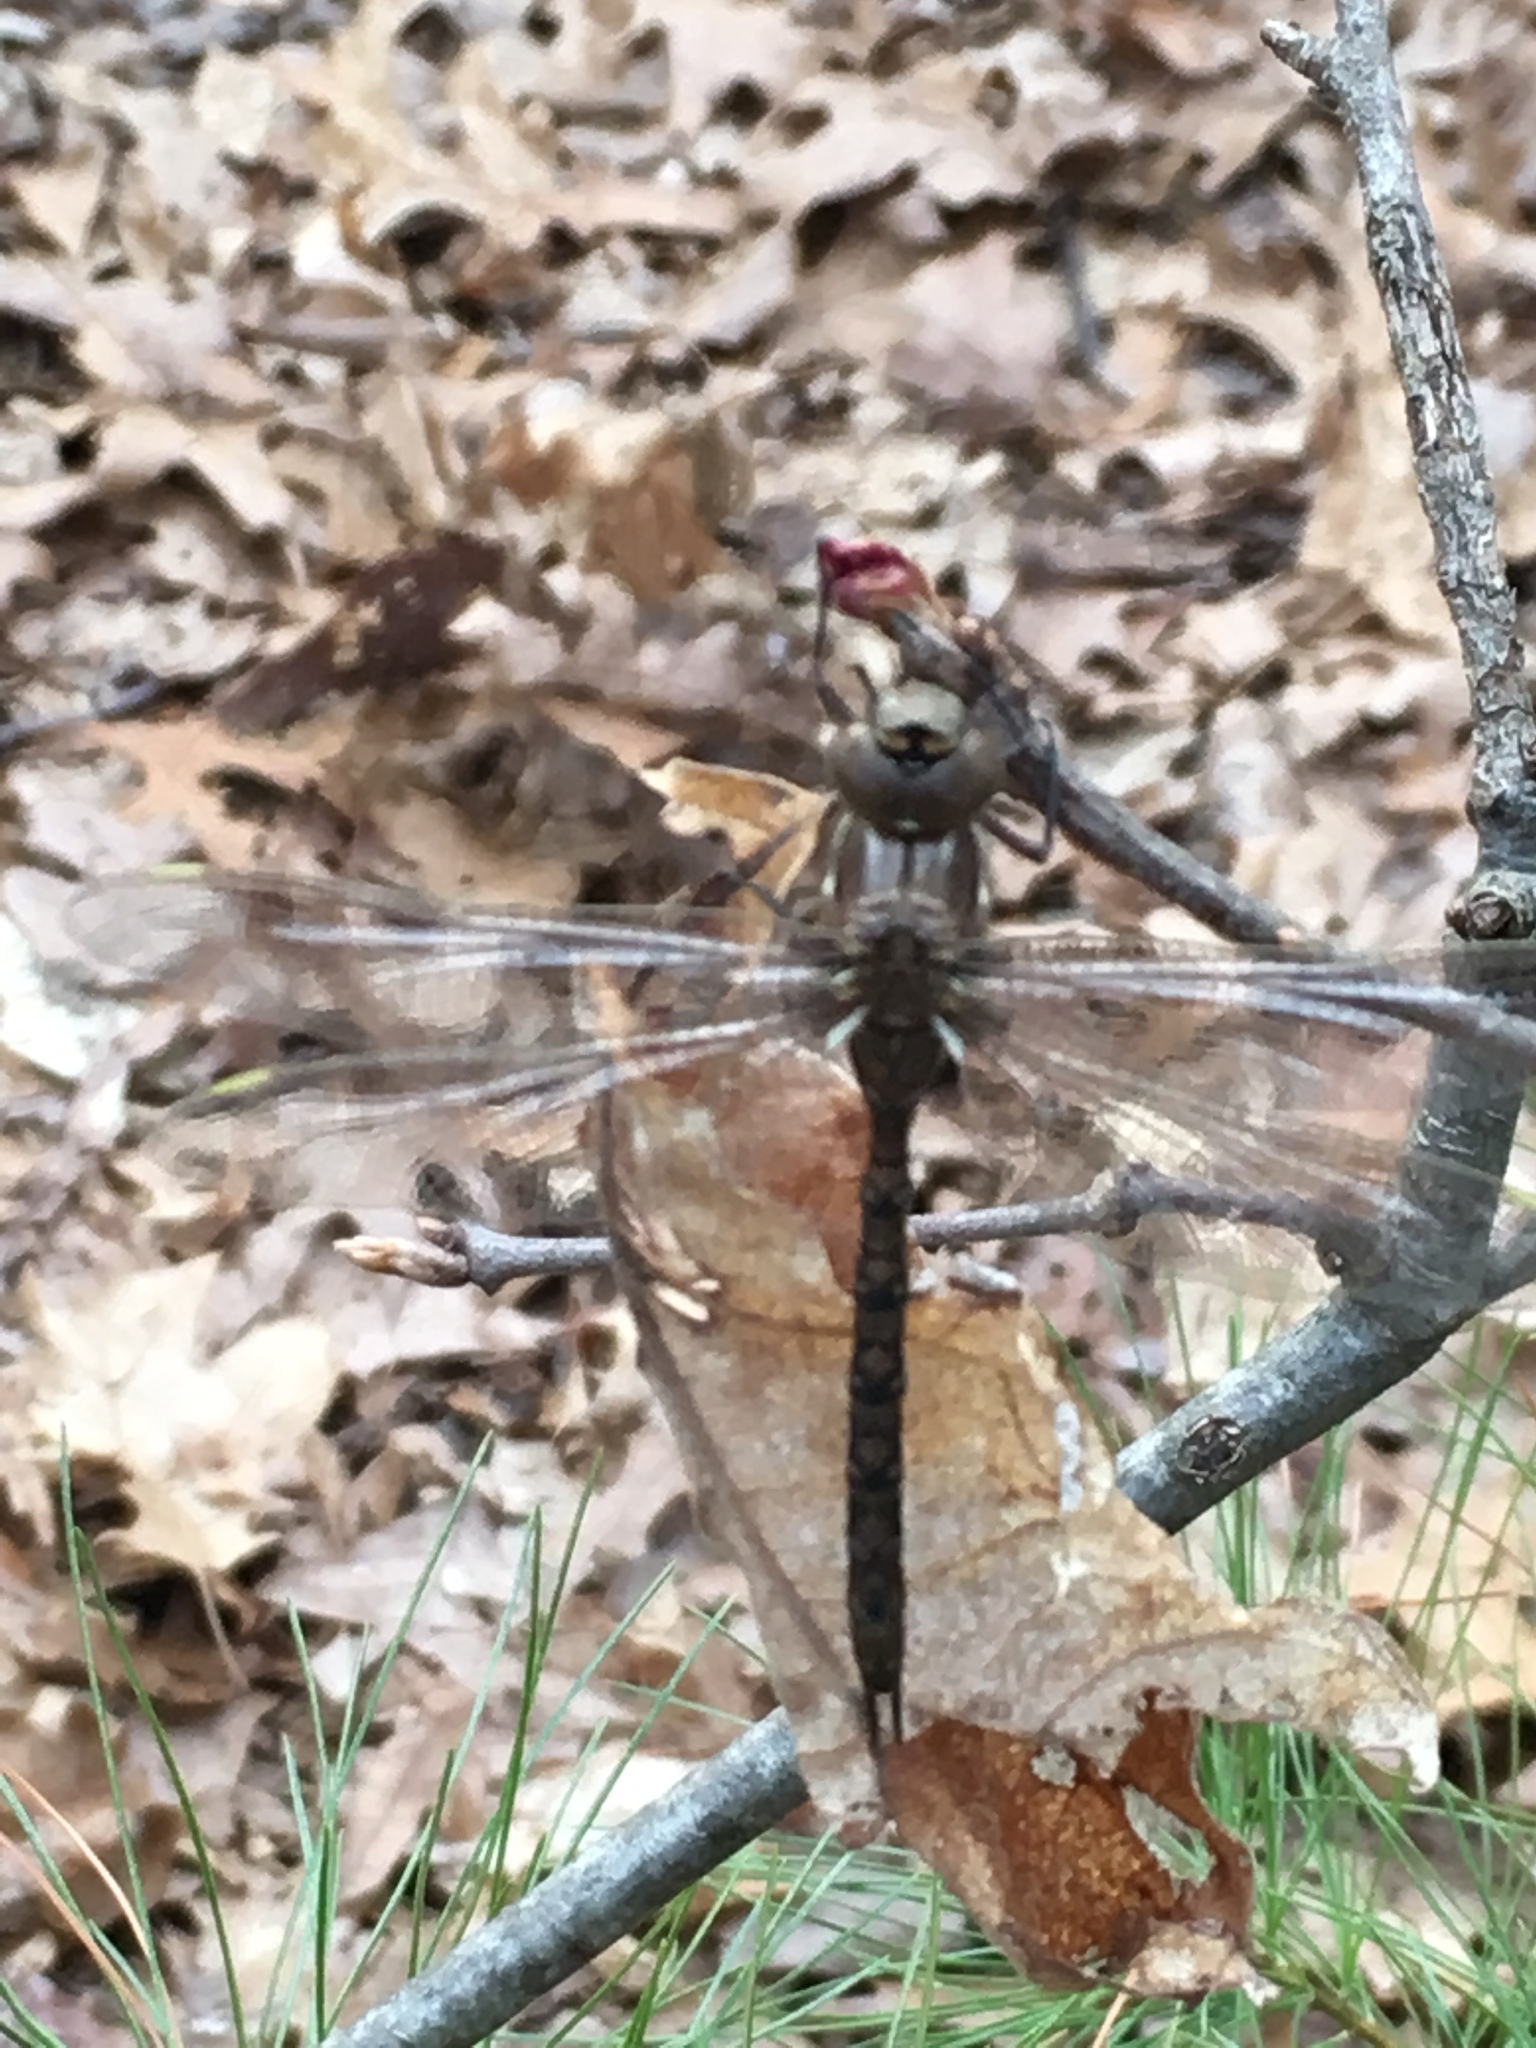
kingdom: Animalia
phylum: Arthropoda
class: Insecta
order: Odonata
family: Aeshnidae
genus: Basiaeschna
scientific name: Basiaeschna janata
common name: Springtime darner
